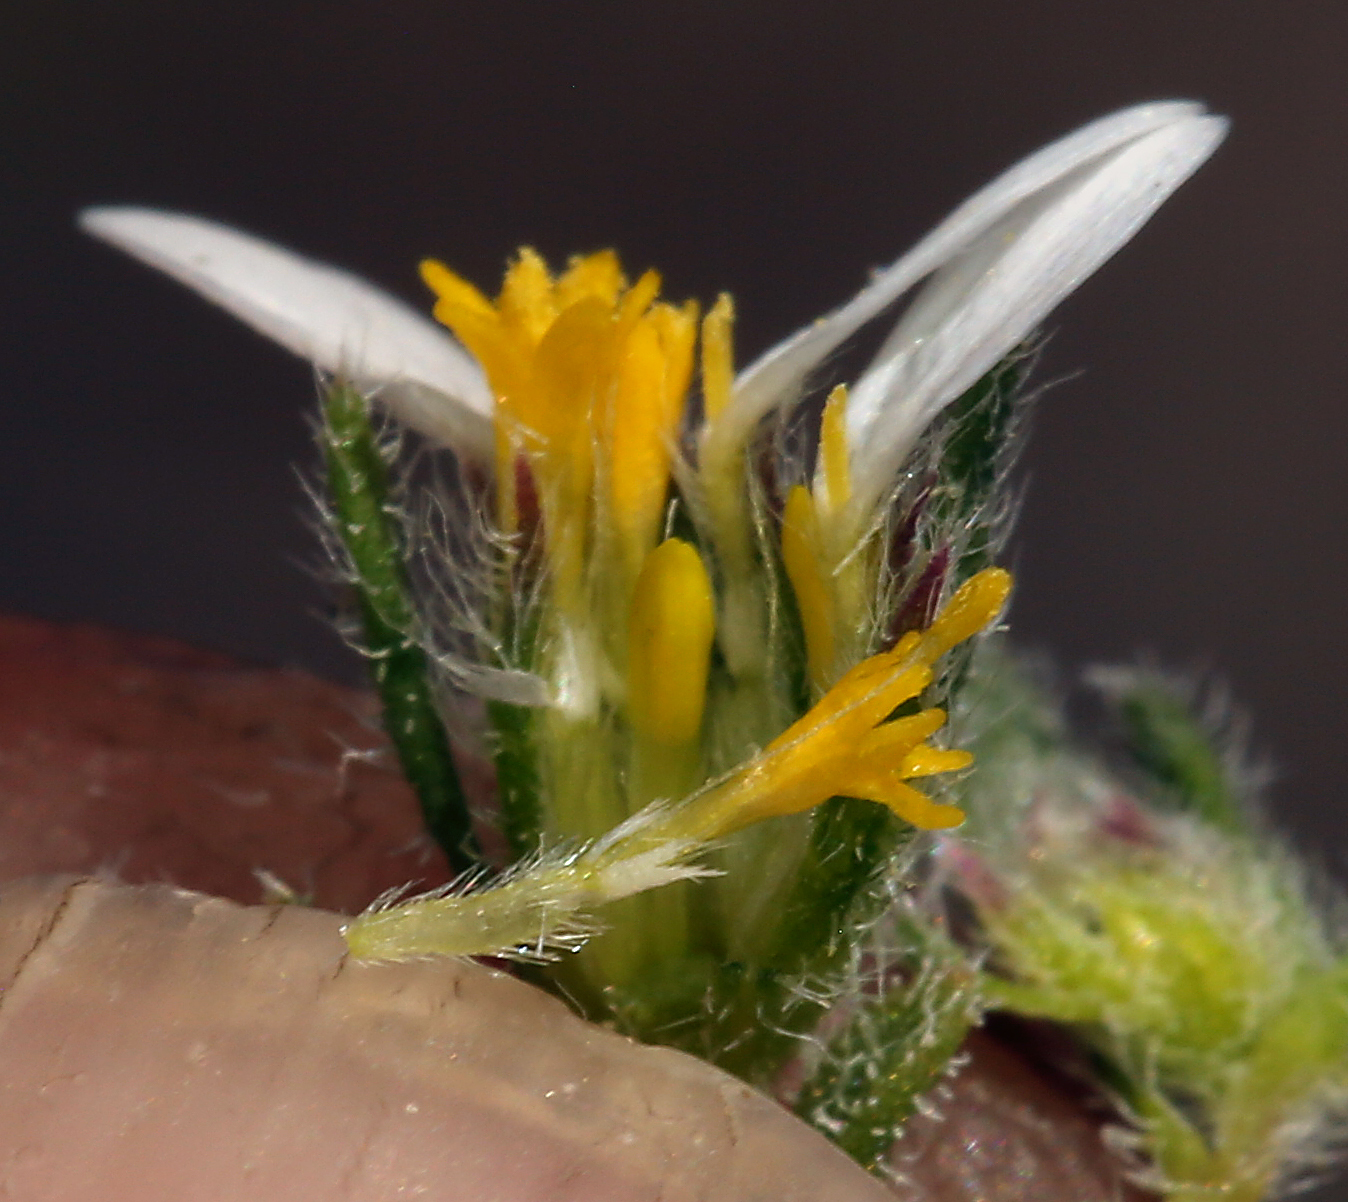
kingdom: Plantae
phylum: Tracheophyta
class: Magnoliopsida
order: Asterales
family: Asteraceae
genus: Monoptilon
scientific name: Monoptilon bellioides
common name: Bristly desertstar
